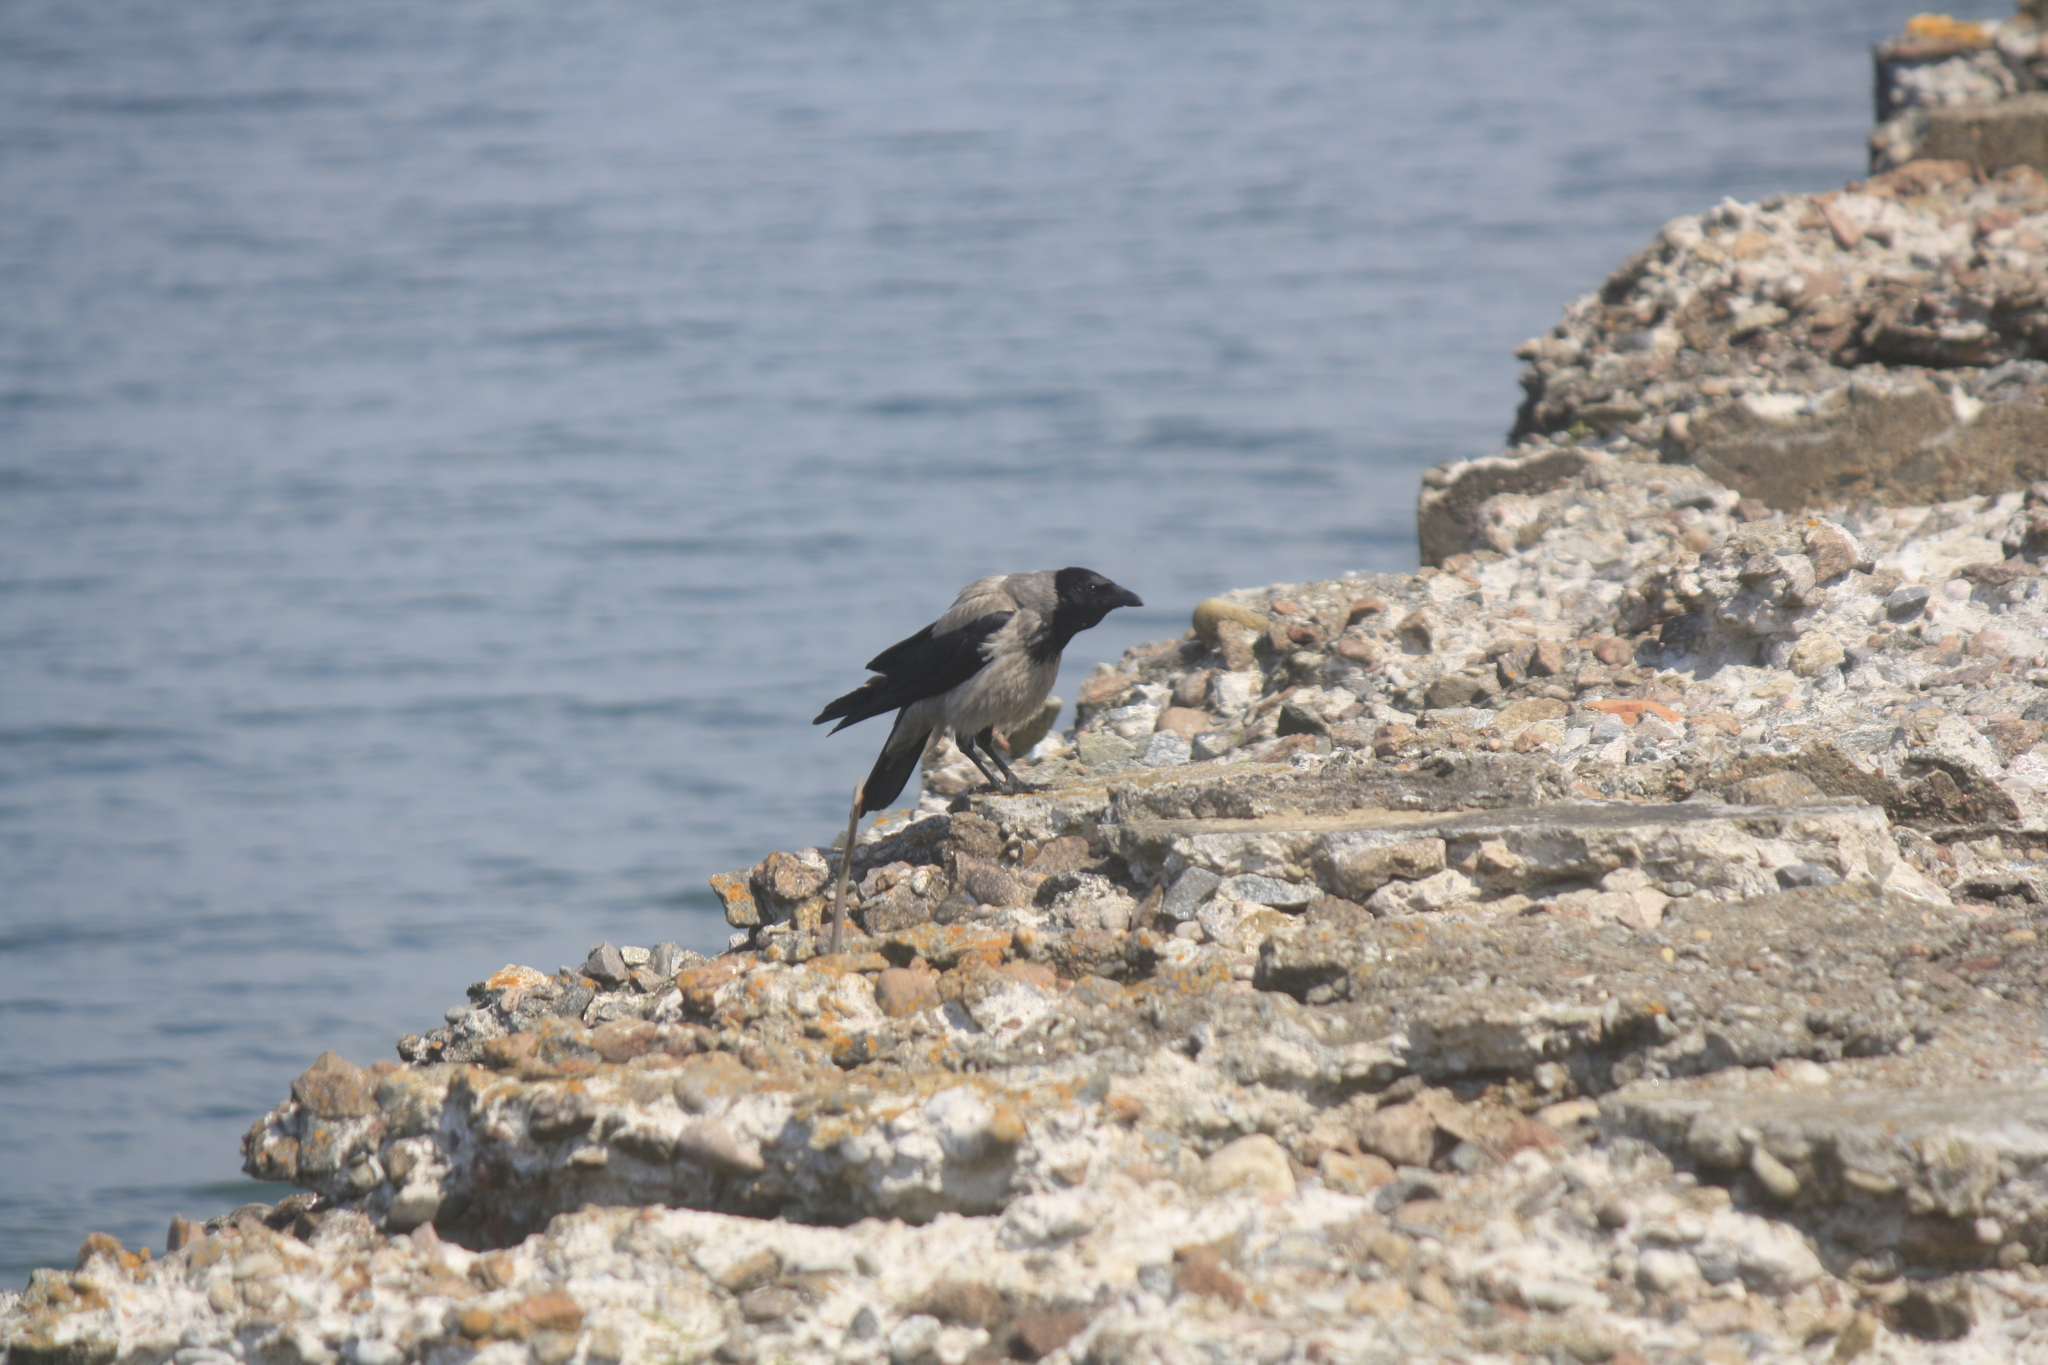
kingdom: Animalia
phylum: Chordata
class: Aves
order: Passeriformes
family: Corvidae
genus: Corvus
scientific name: Corvus cornix
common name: Hooded crow
